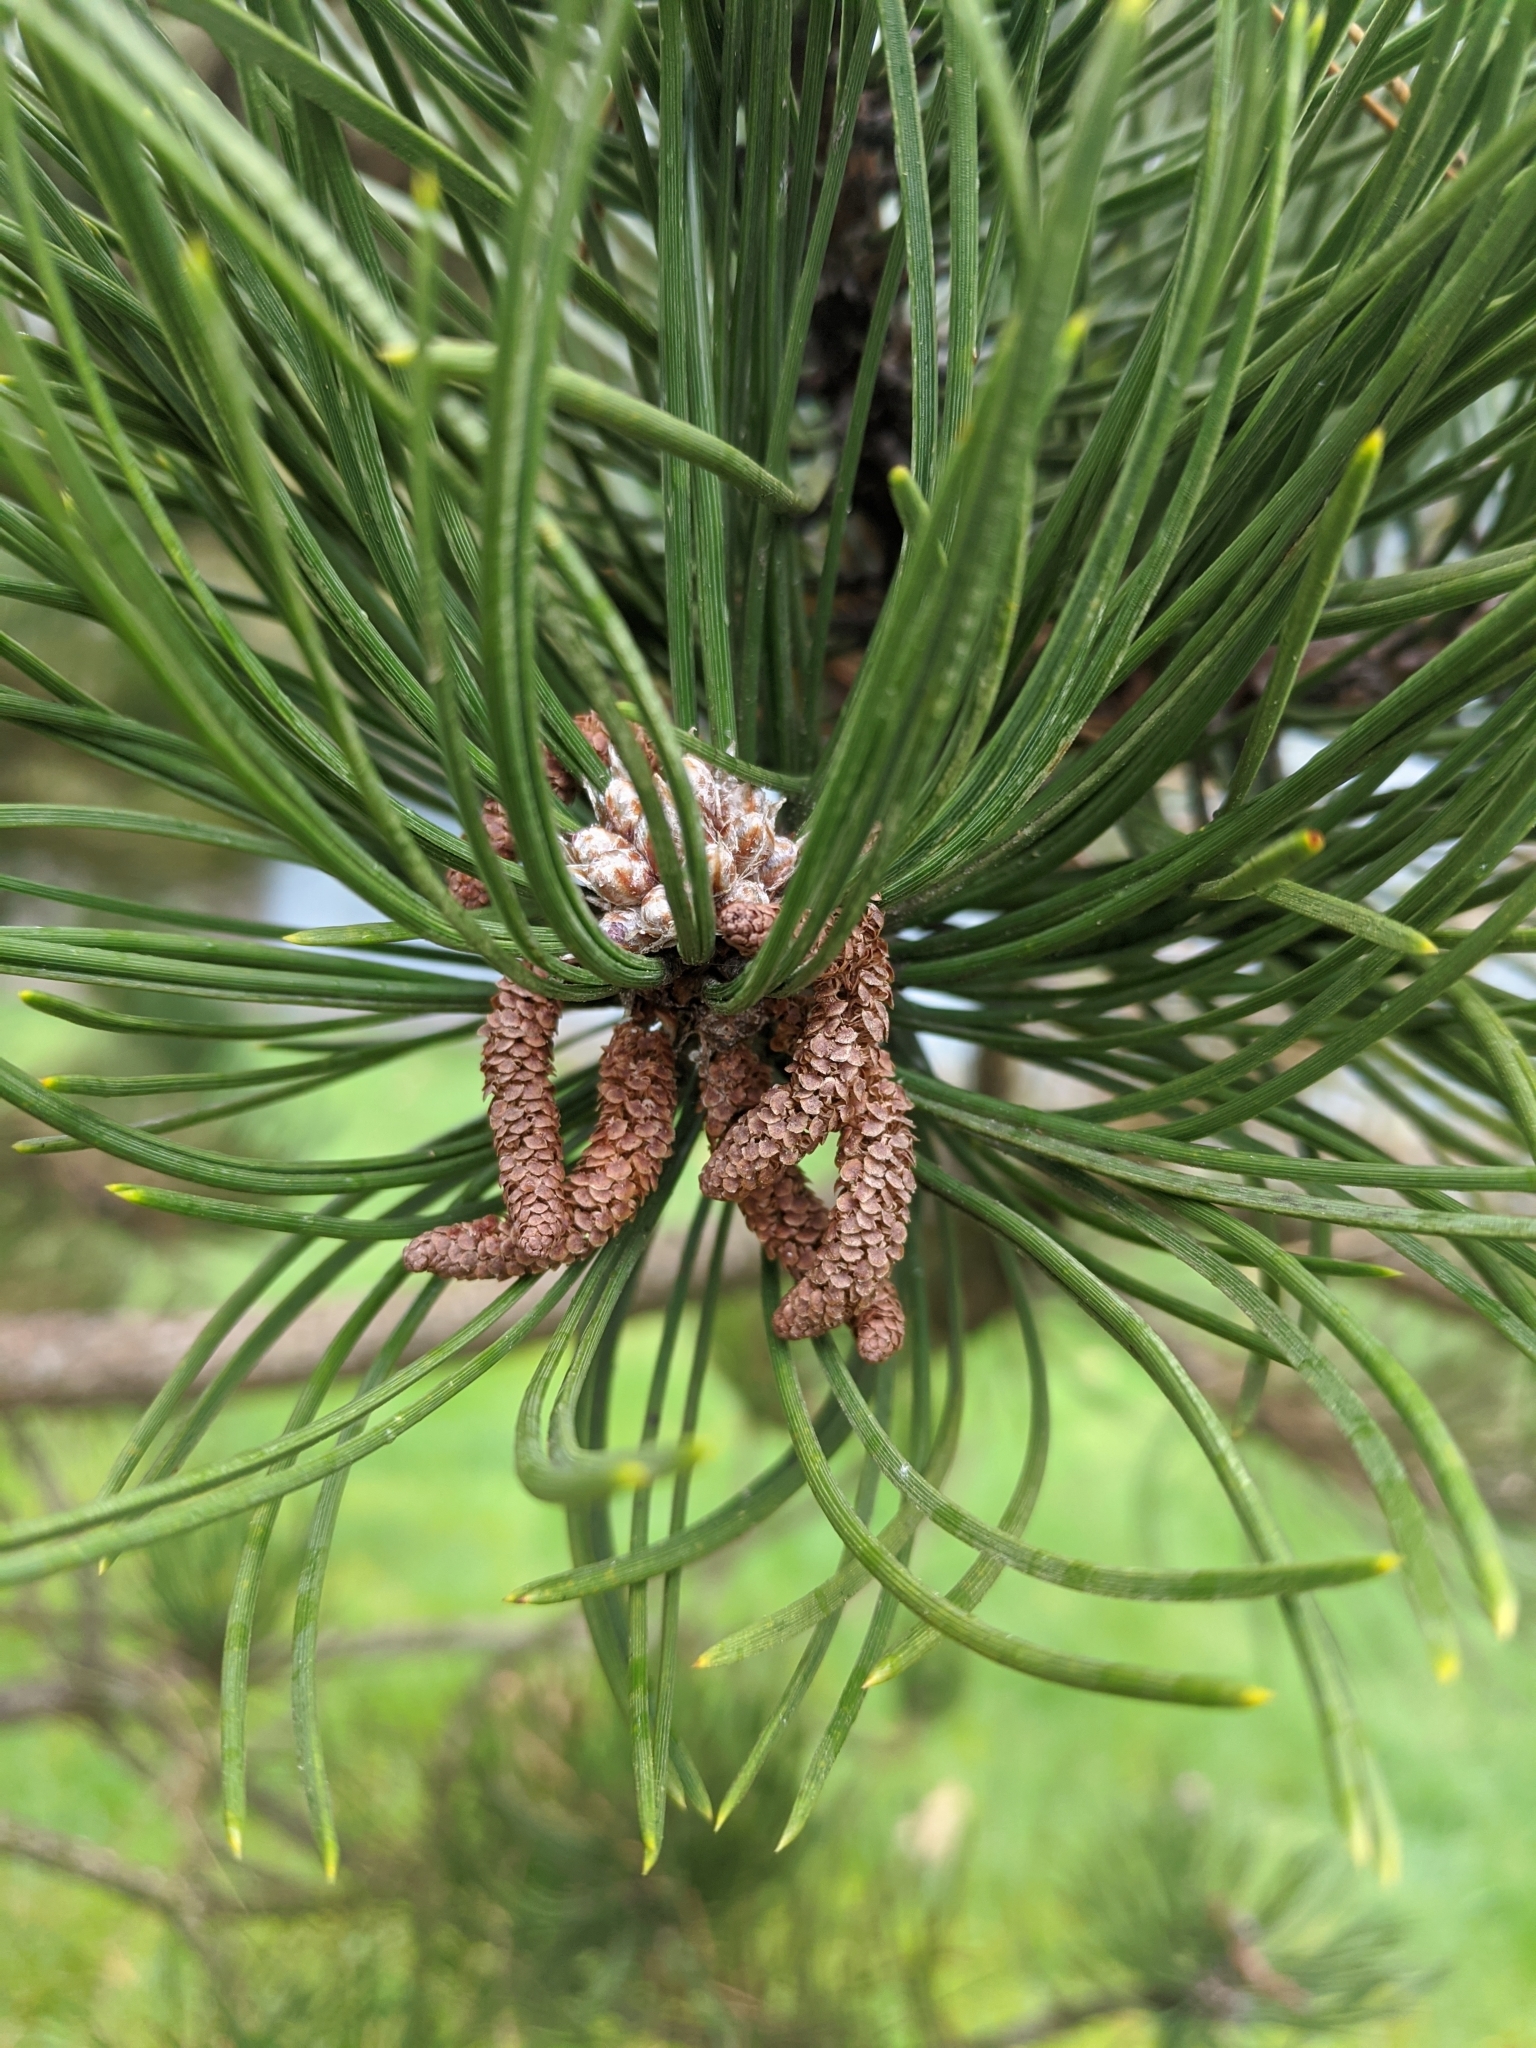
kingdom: Plantae
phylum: Tracheophyta
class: Pinopsida
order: Pinales
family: Pinaceae
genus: Pinus
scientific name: Pinus contorta
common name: Lodgepole pine
